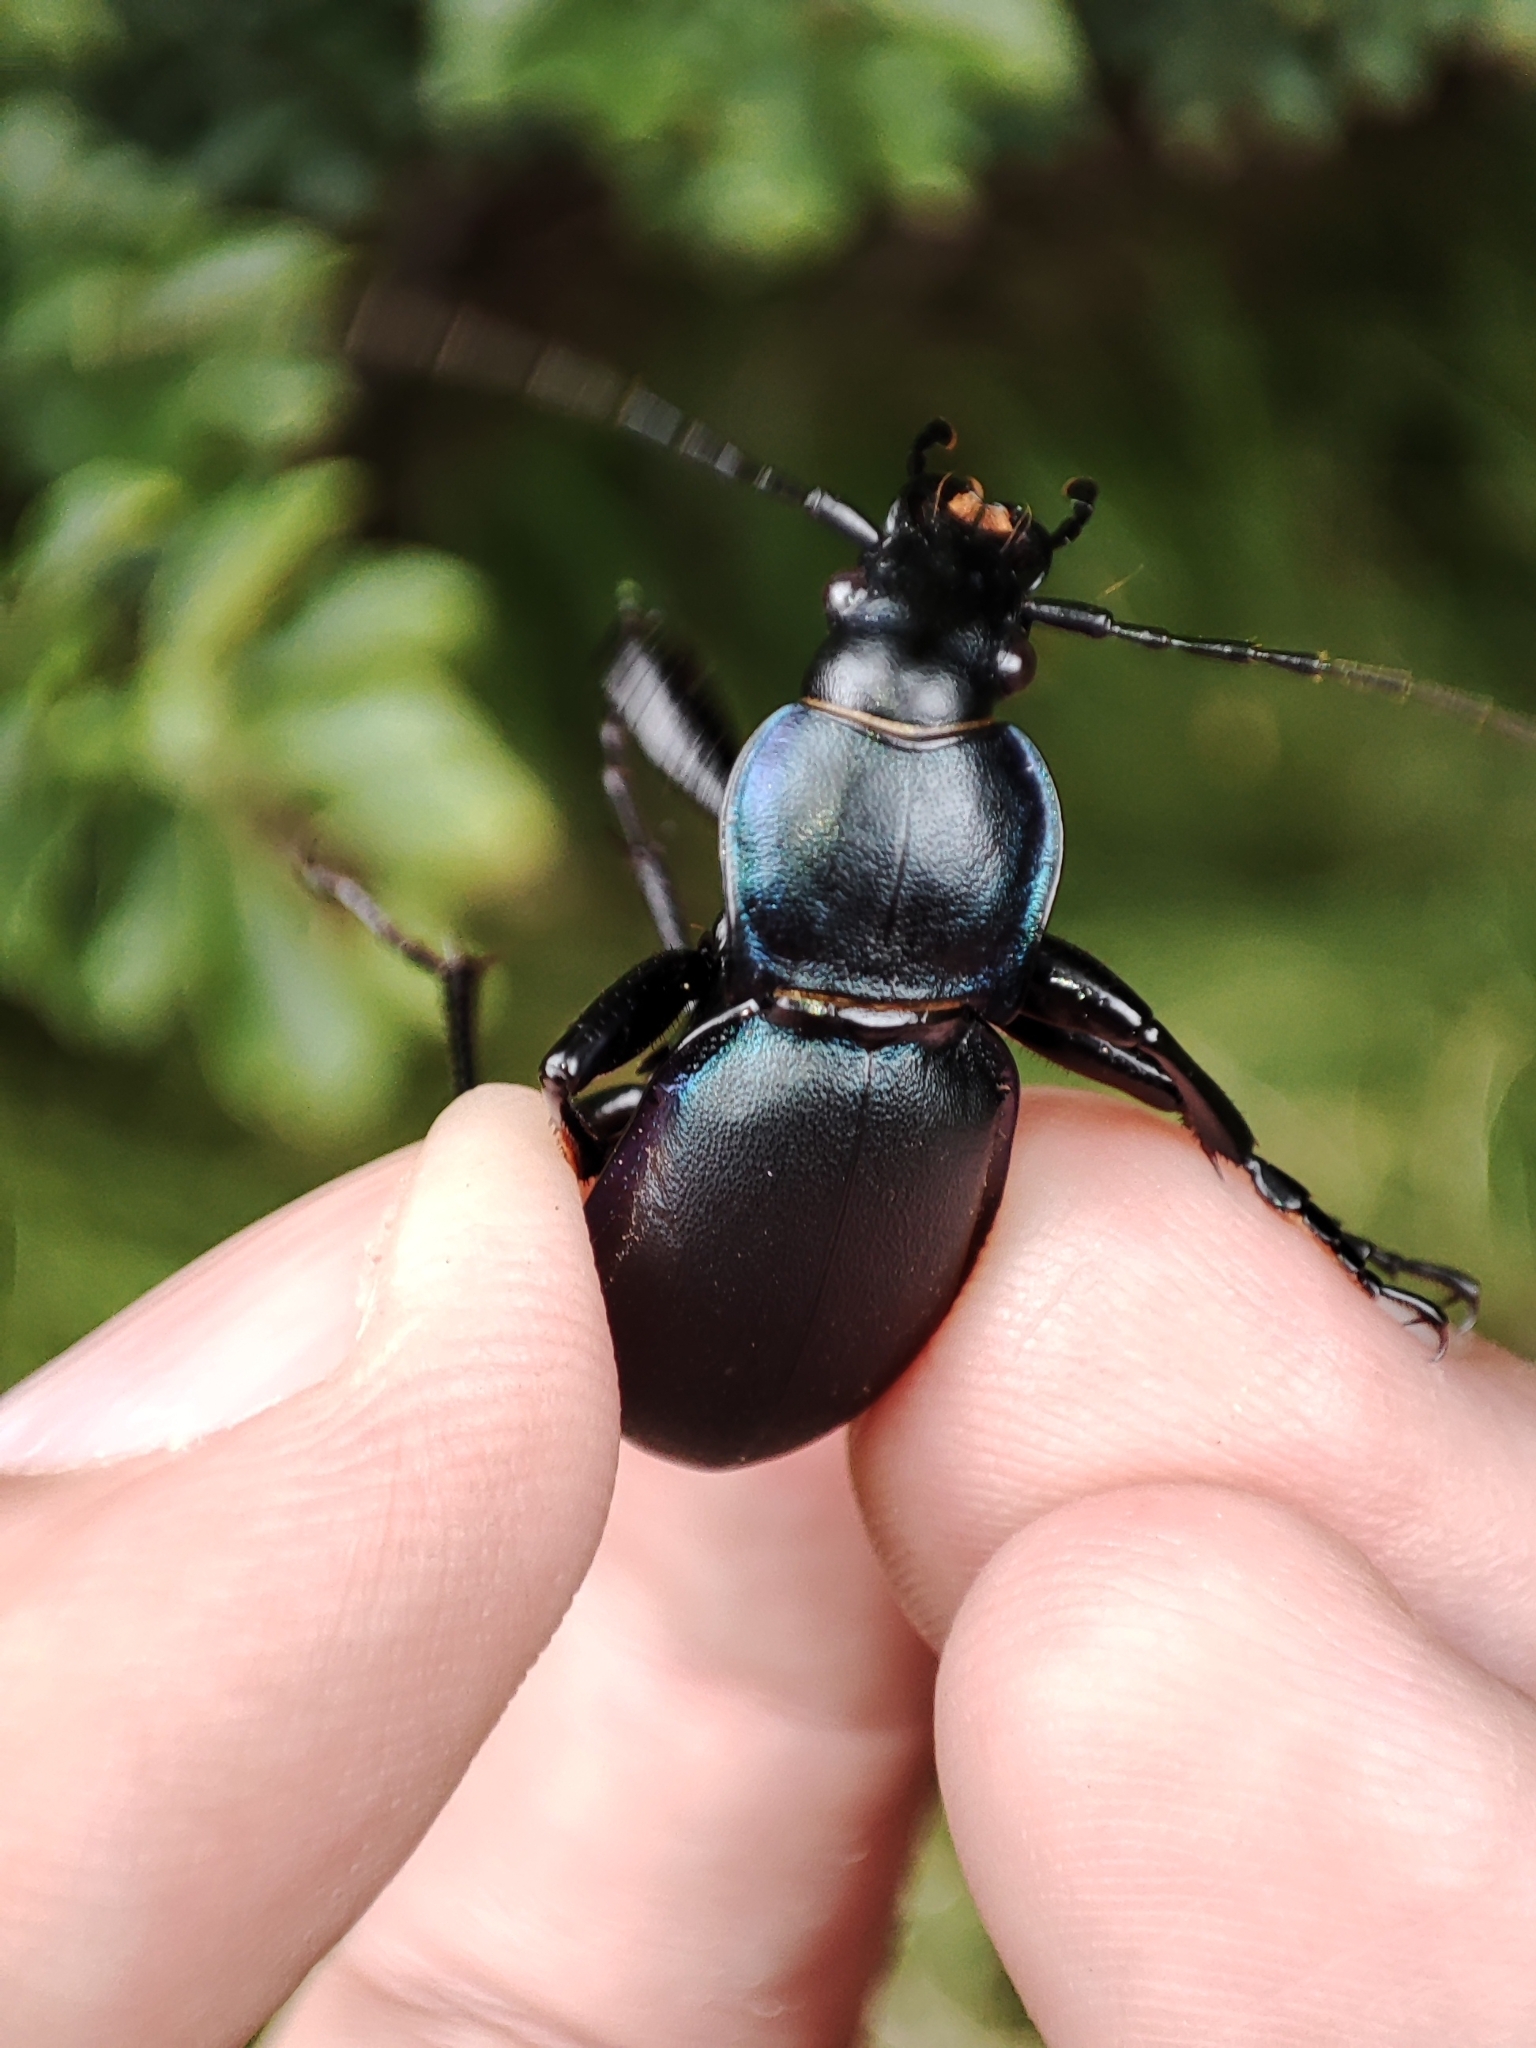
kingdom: Animalia
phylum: Arthropoda
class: Insecta
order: Coleoptera
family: Carabidae
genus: Carabus
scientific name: Carabus violaceus
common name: Violet ground beetle
